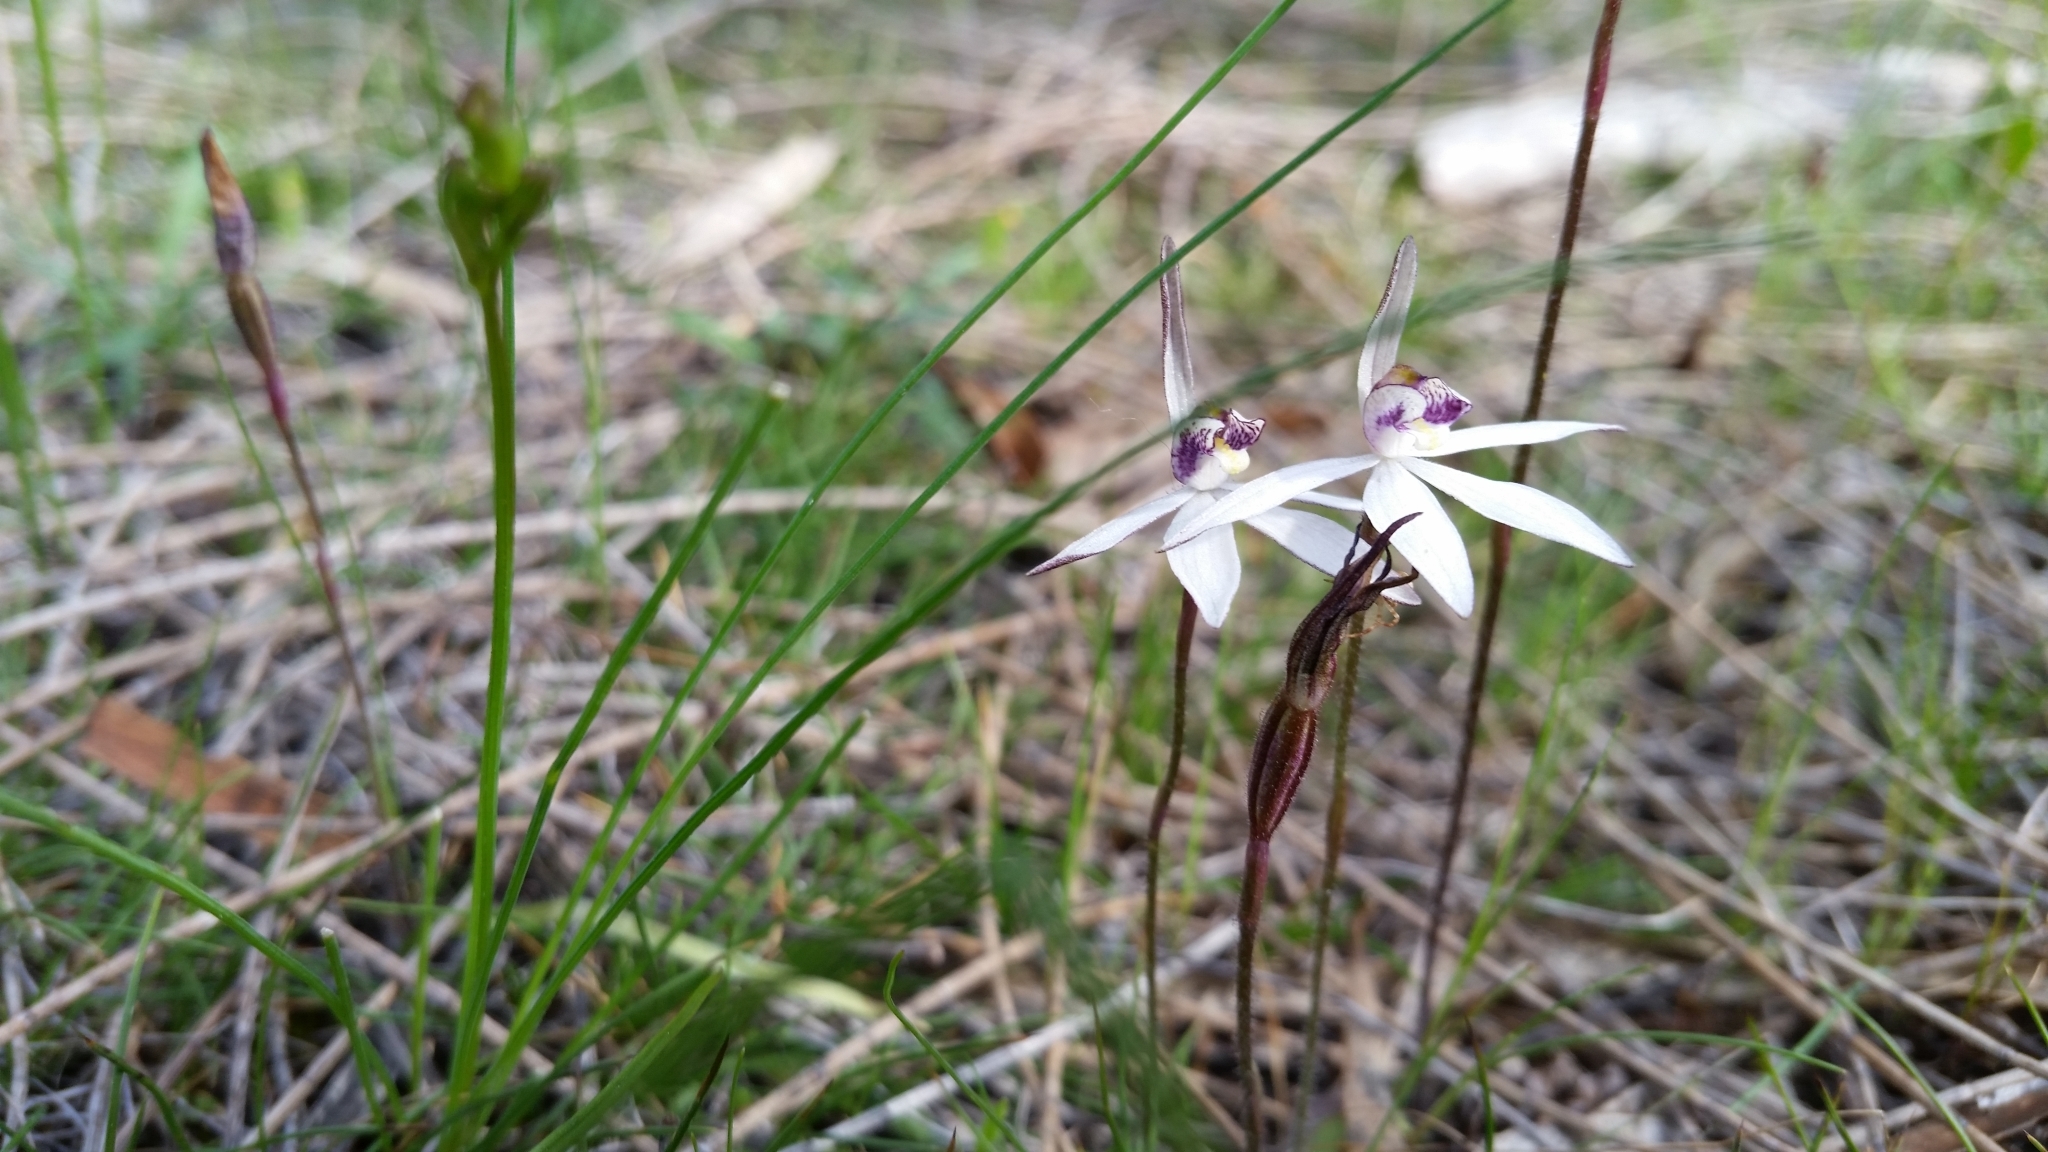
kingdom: Plantae
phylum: Tracheophyta
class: Liliopsida
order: Asparagales
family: Orchidaceae
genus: Caladenia
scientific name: Caladenia saccharata
